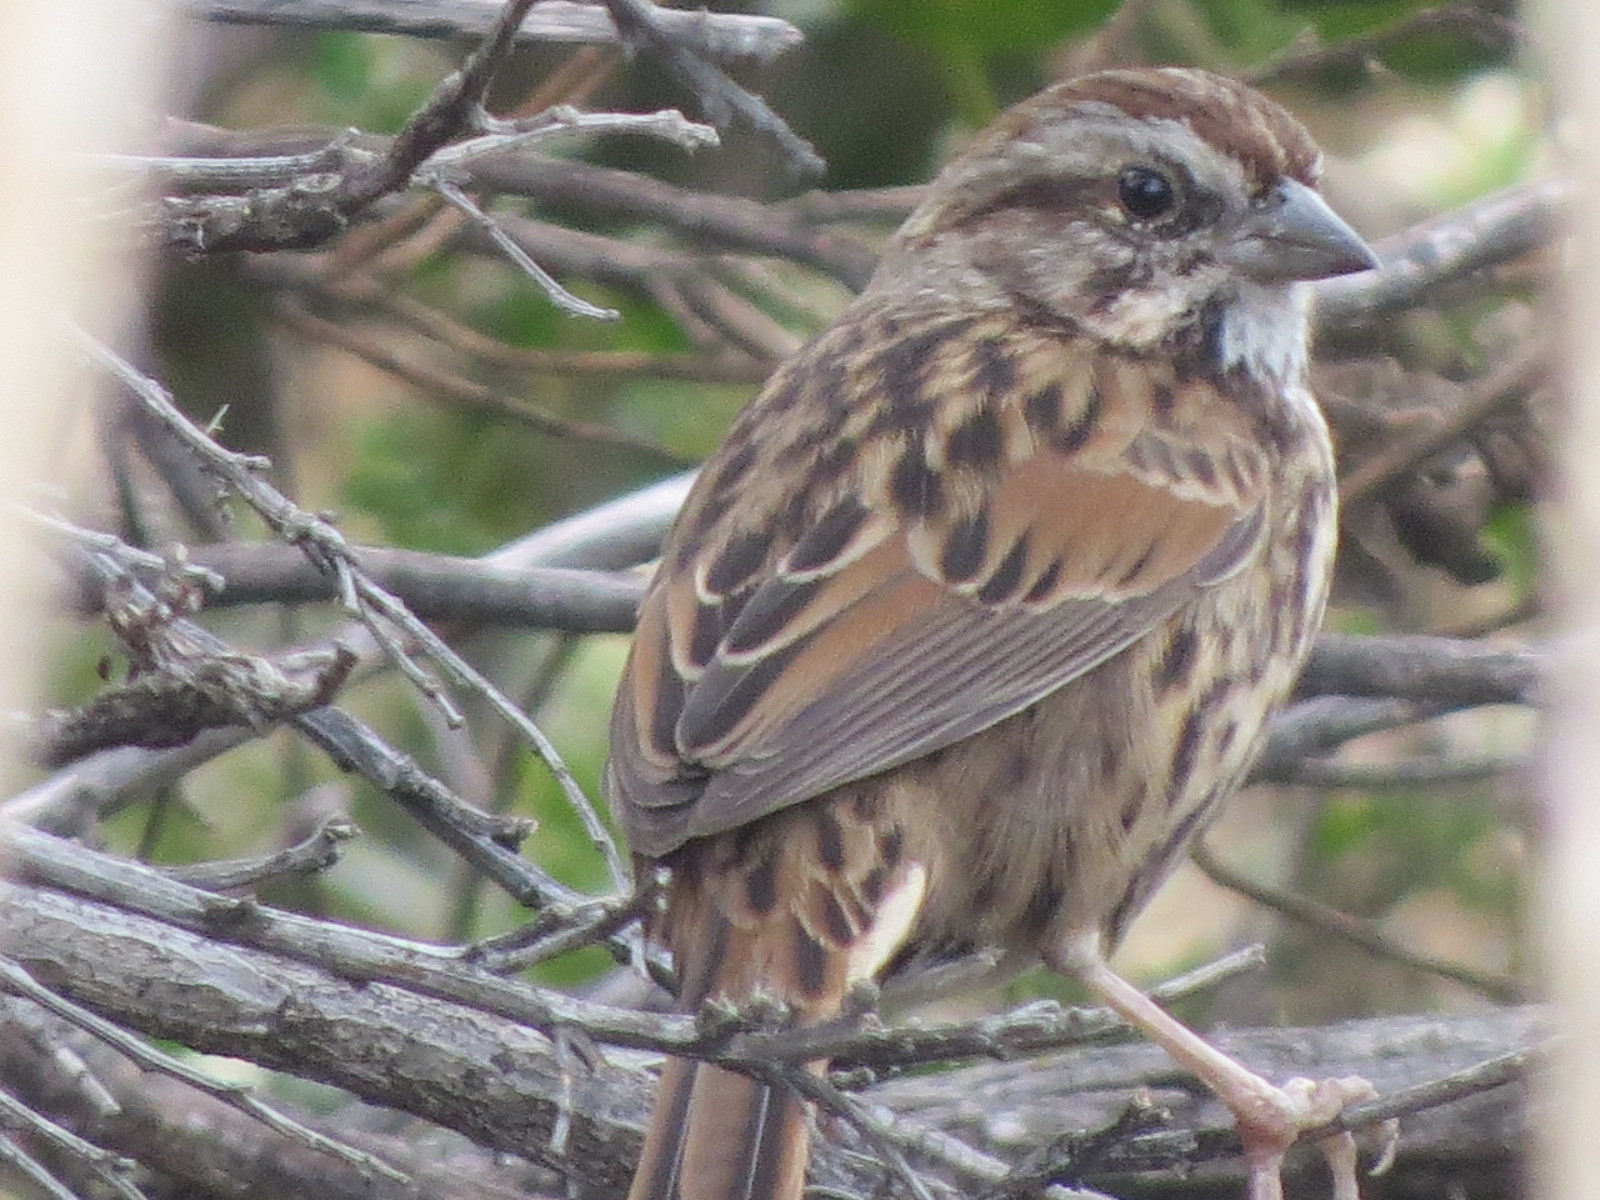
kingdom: Animalia
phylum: Chordata
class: Aves
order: Passeriformes
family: Passerellidae
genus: Melospiza
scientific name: Melospiza melodia
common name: Song sparrow
